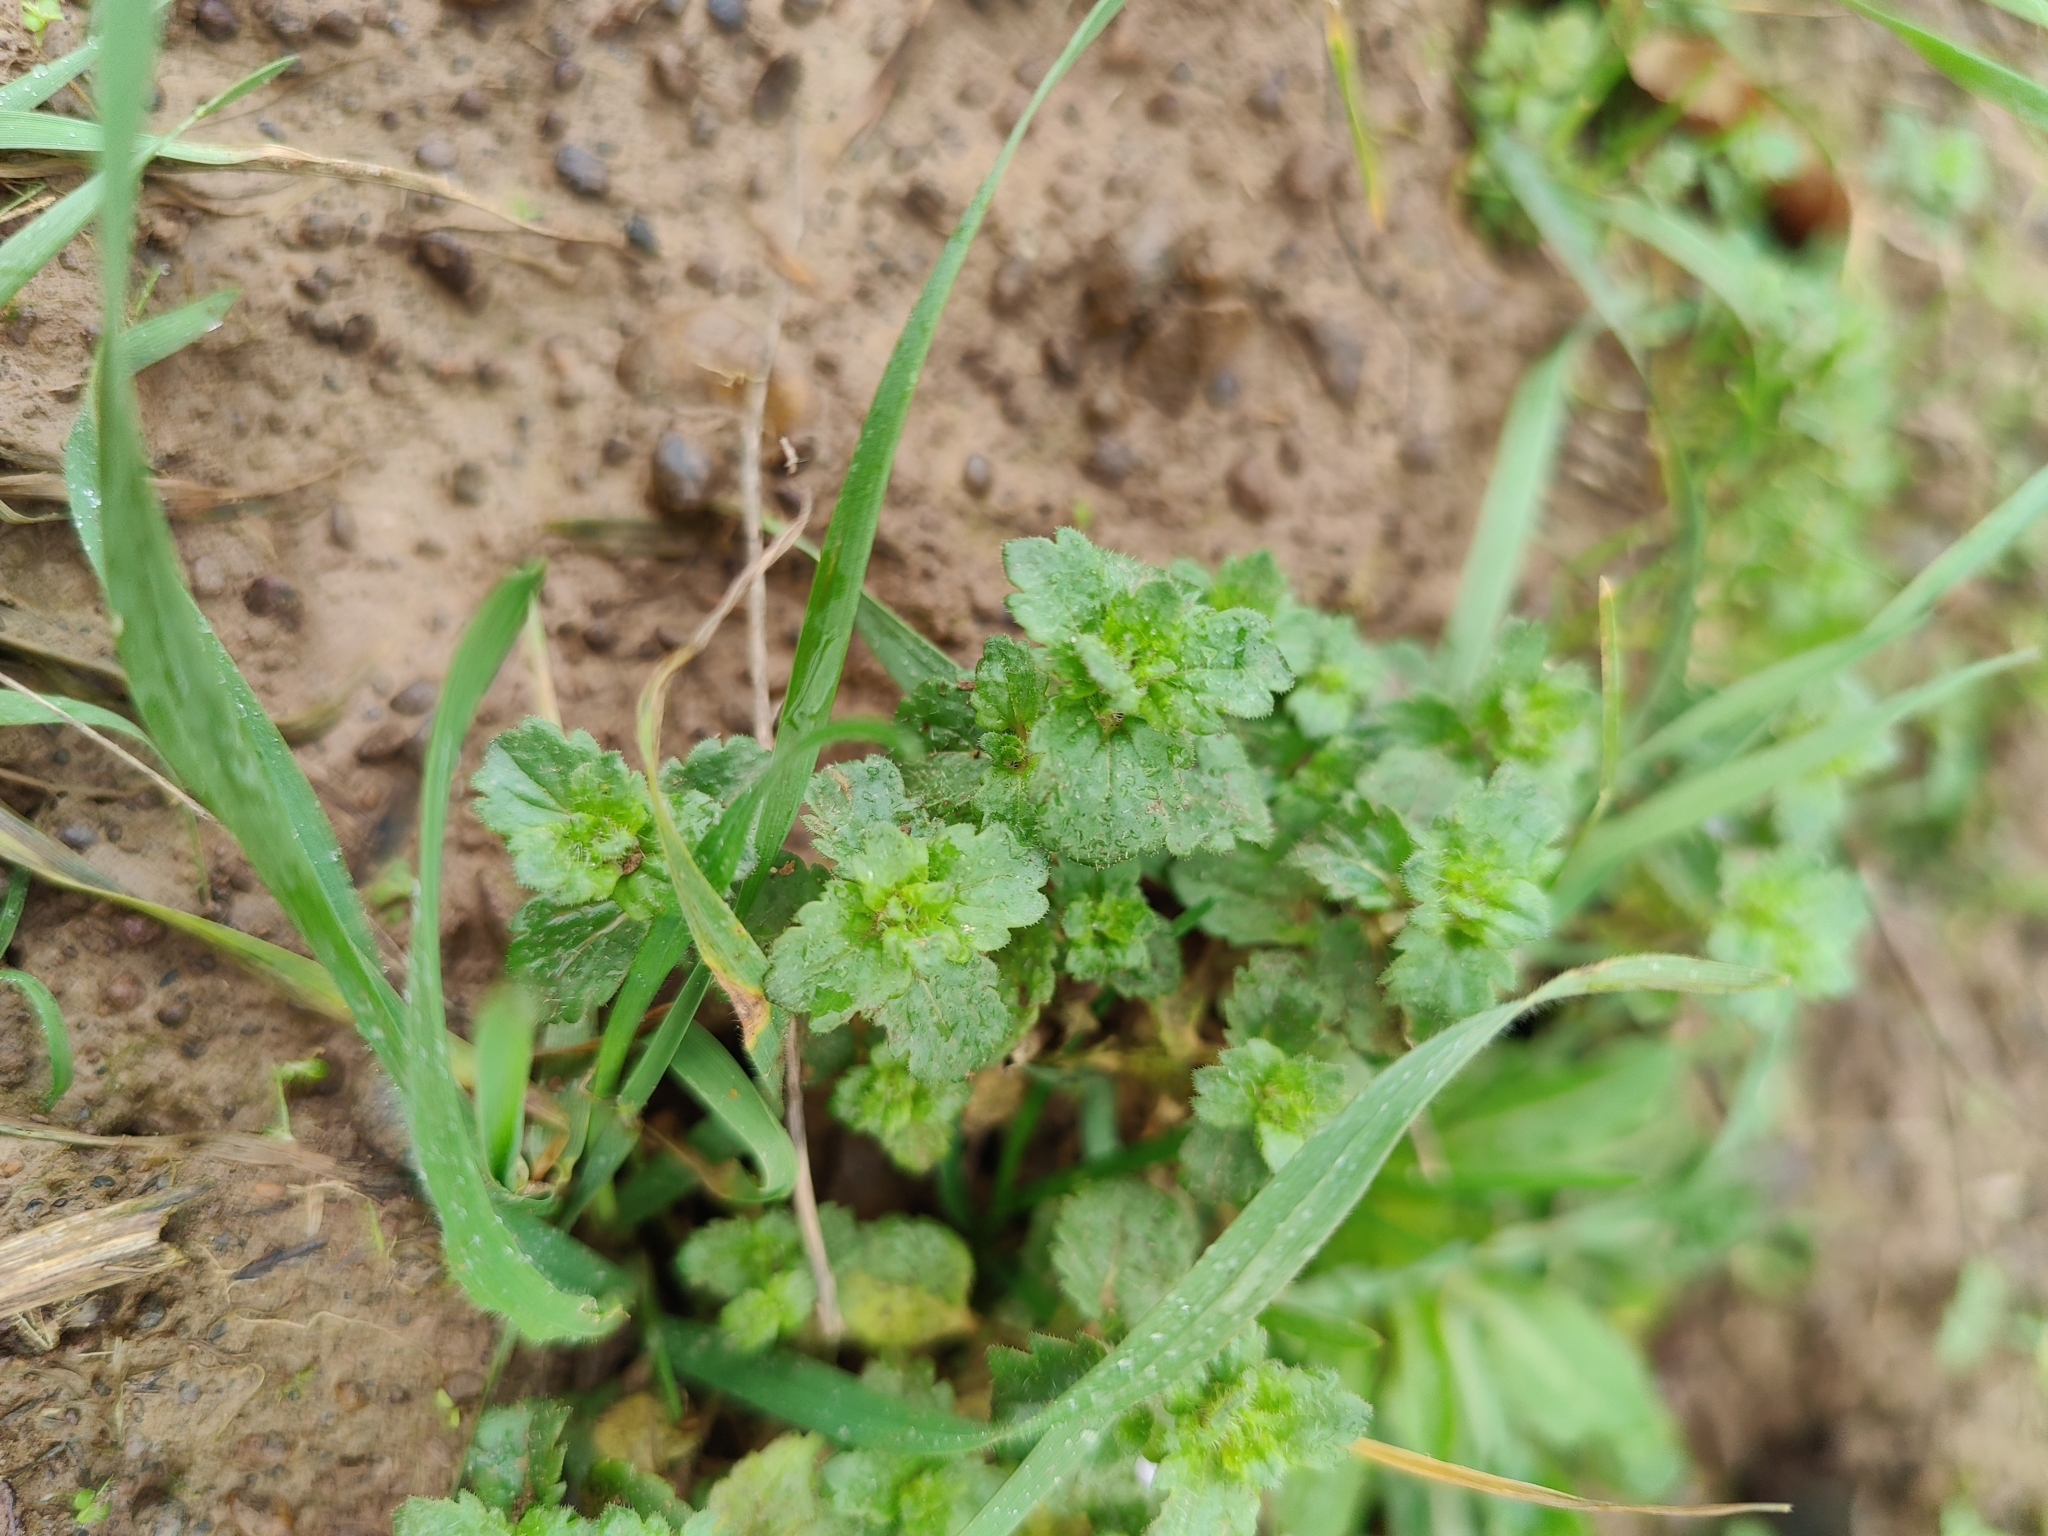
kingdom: Plantae
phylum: Tracheophyta
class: Magnoliopsida
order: Lamiales
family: Plantaginaceae
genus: Veronica
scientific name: Veronica persica
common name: Common field-speedwell
